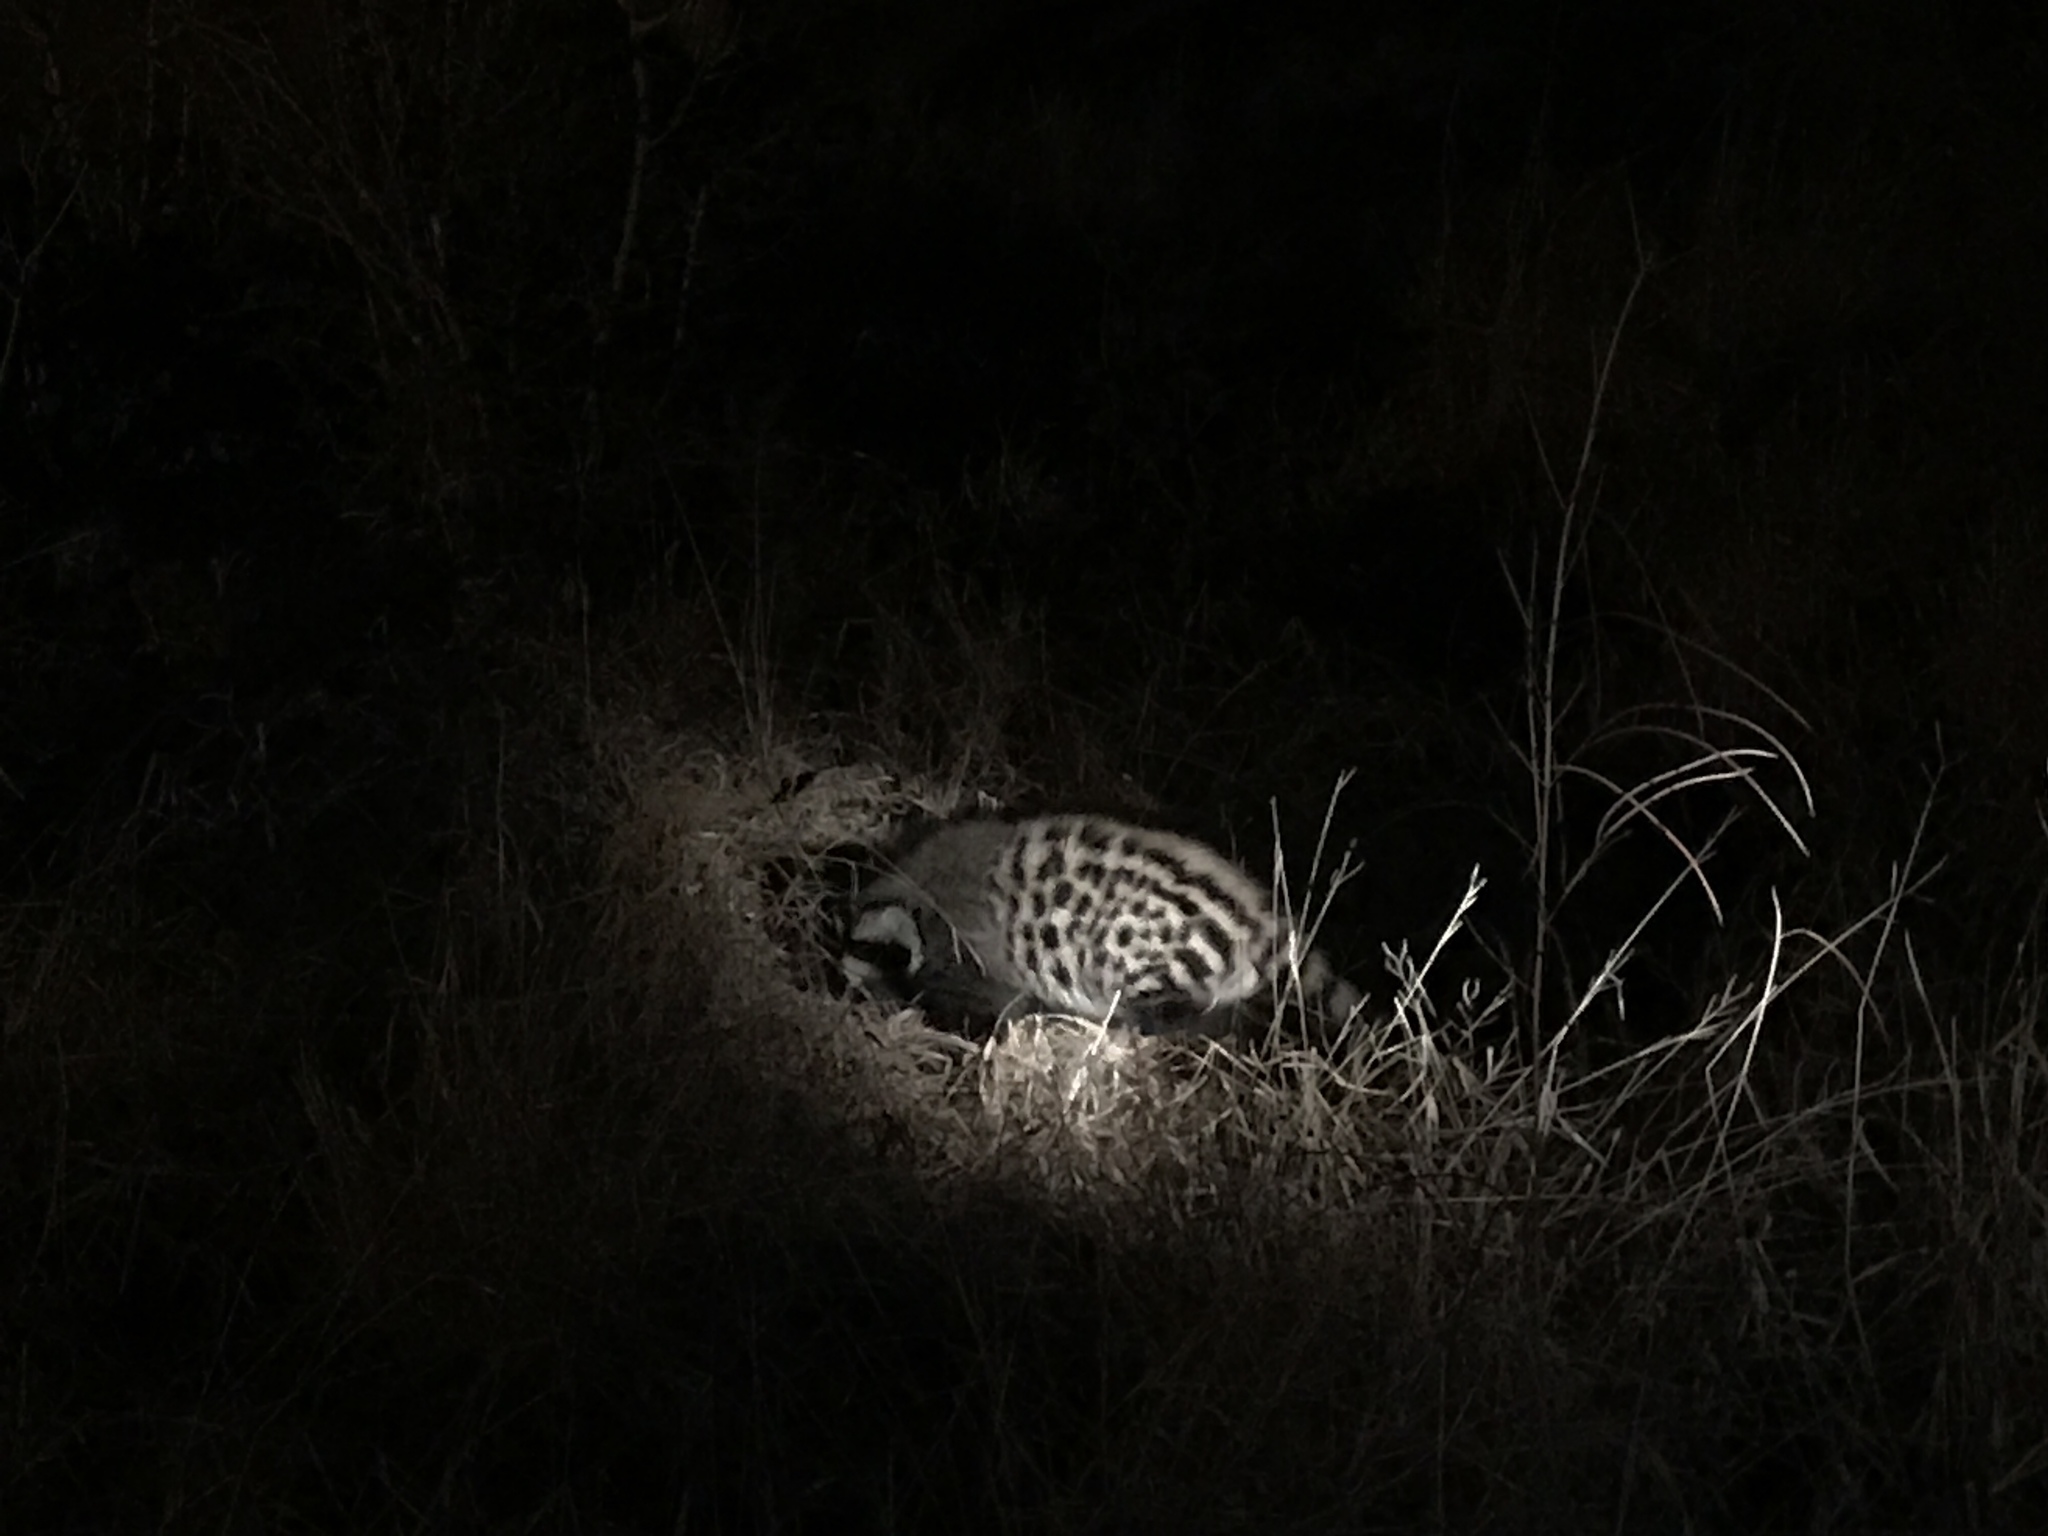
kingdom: Animalia
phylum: Chordata
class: Mammalia
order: Carnivora
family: Viverridae
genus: Civettictis
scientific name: Civettictis civetta
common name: African civet
